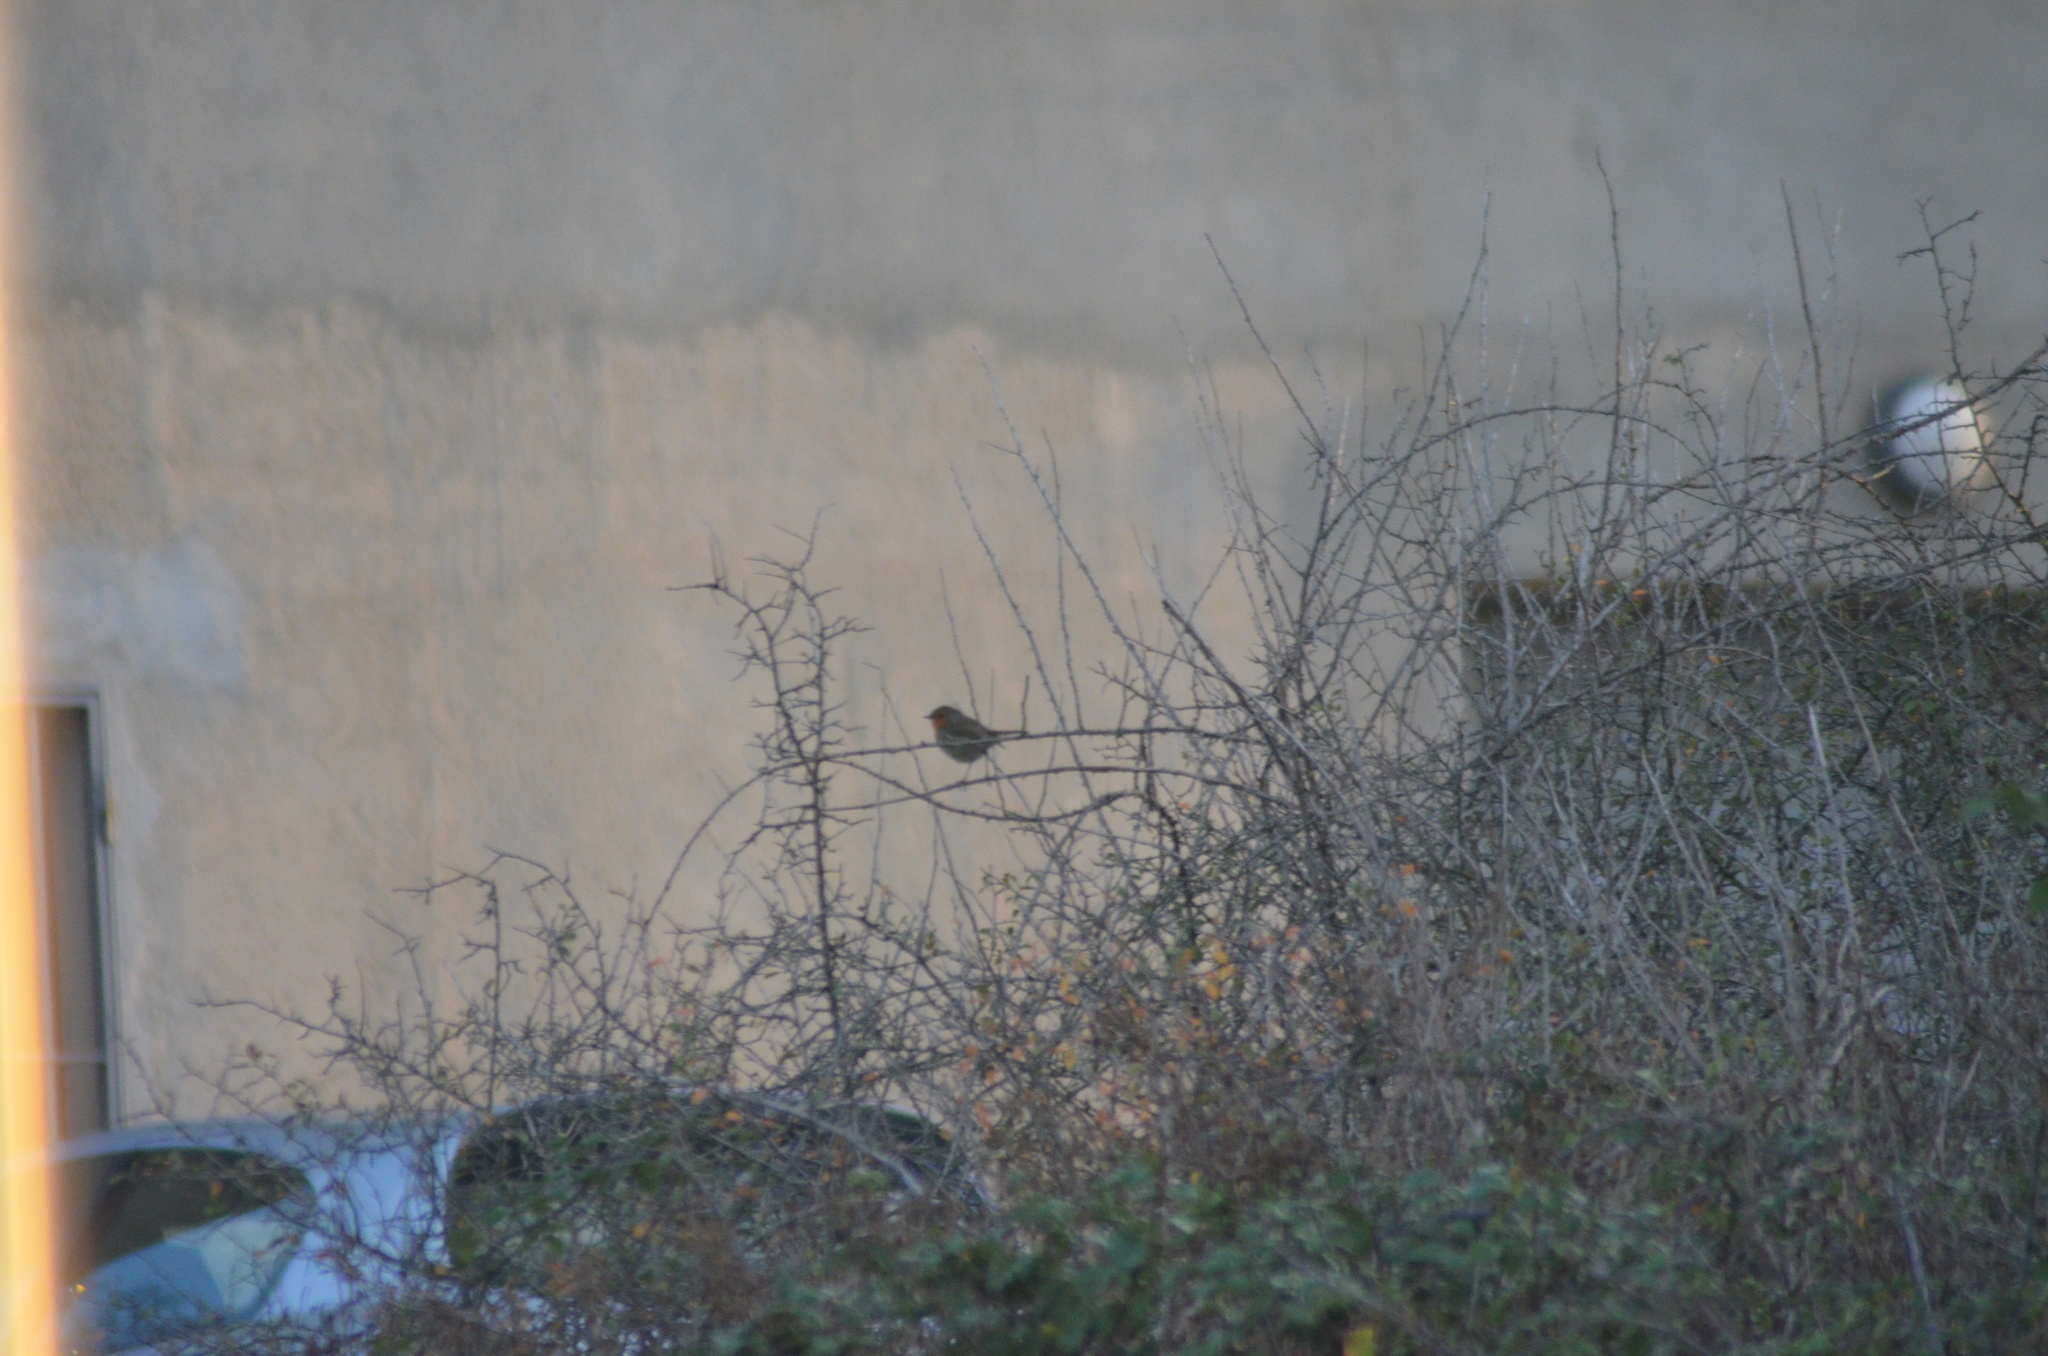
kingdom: Animalia
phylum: Chordata
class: Aves
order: Passeriformes
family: Muscicapidae
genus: Erithacus
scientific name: Erithacus rubecula
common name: European robin
